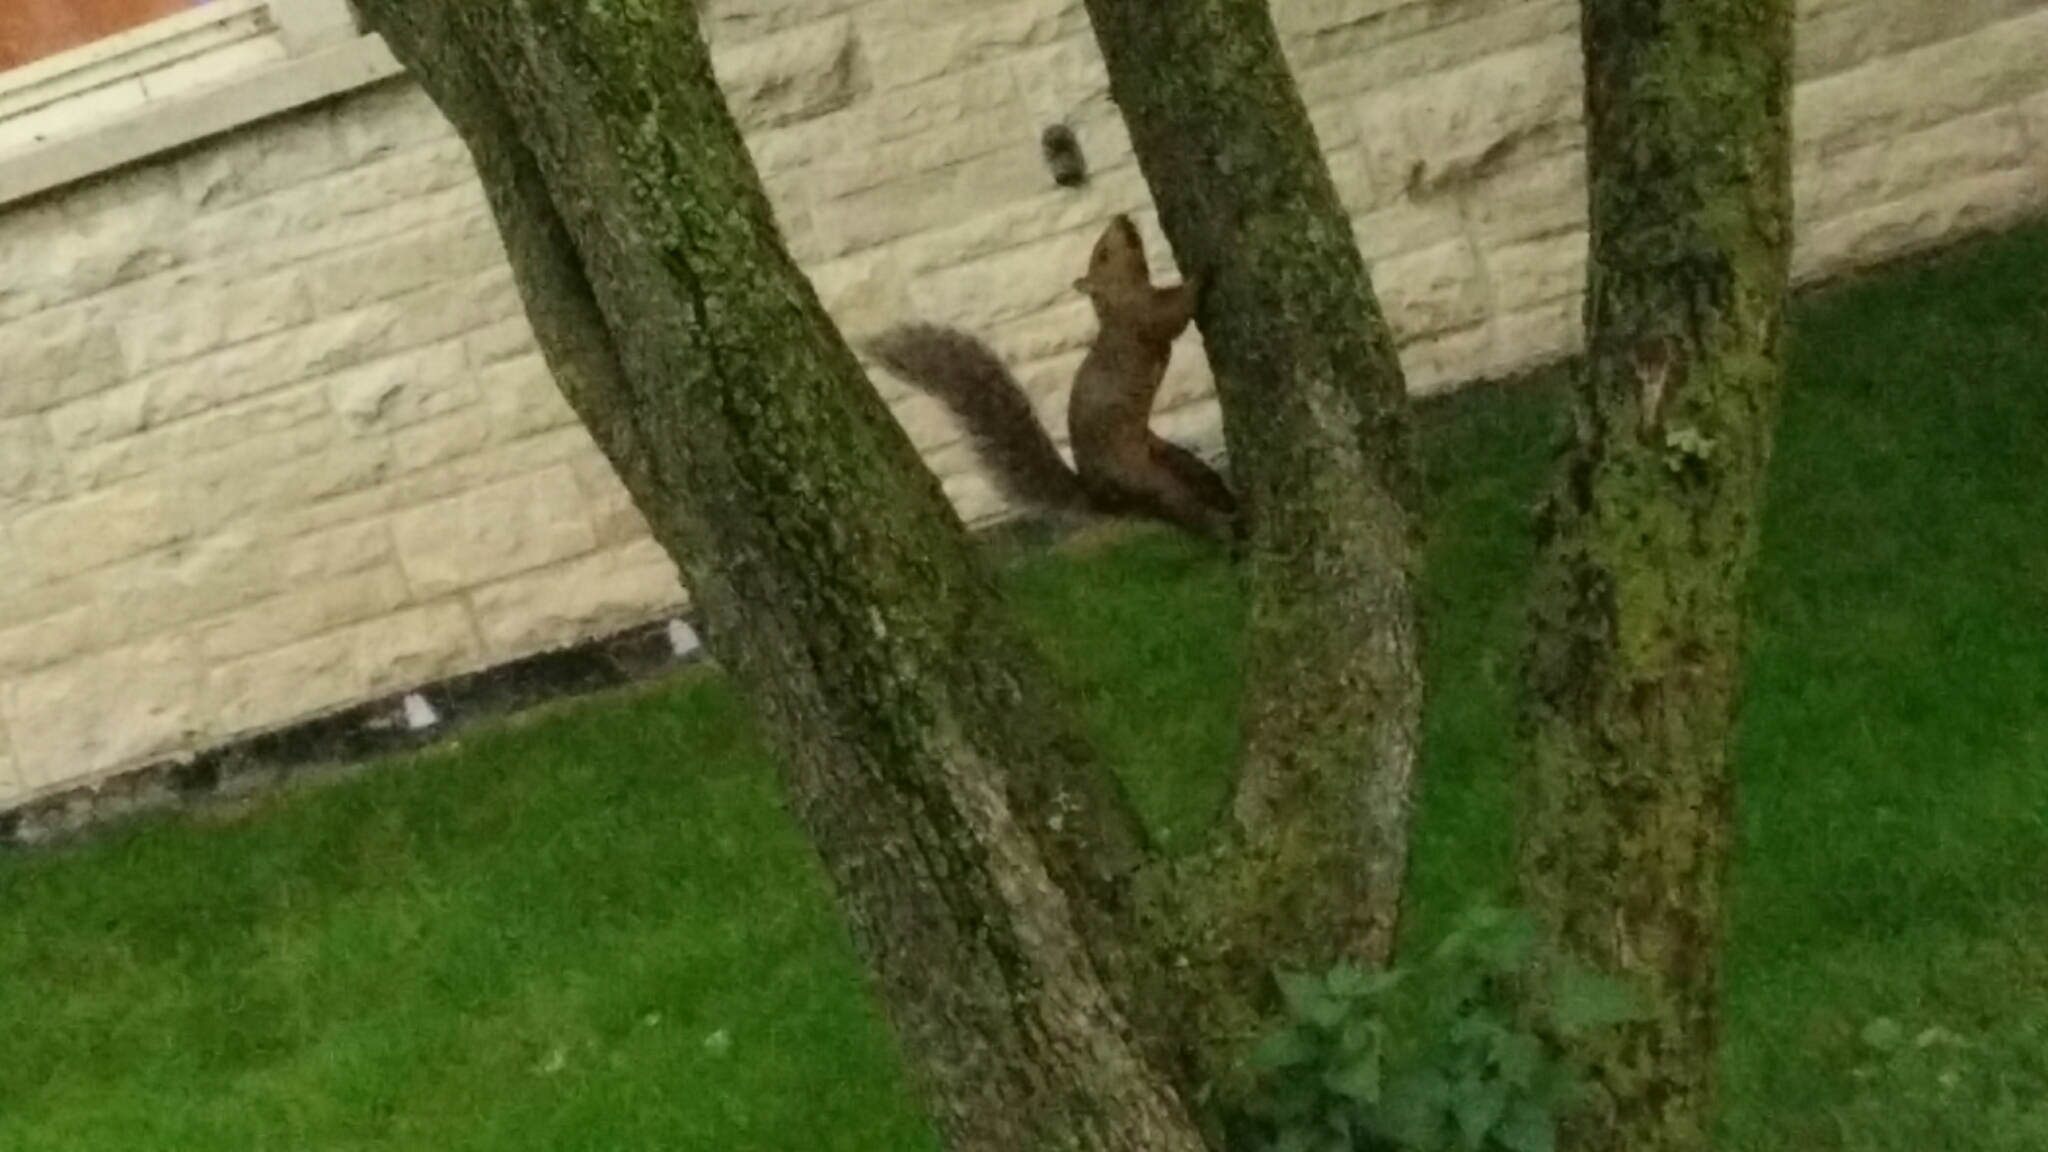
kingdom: Animalia
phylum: Chordata
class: Mammalia
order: Rodentia
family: Sciuridae
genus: Sciurus
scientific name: Sciurus carolinensis
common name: Eastern gray squirrel
